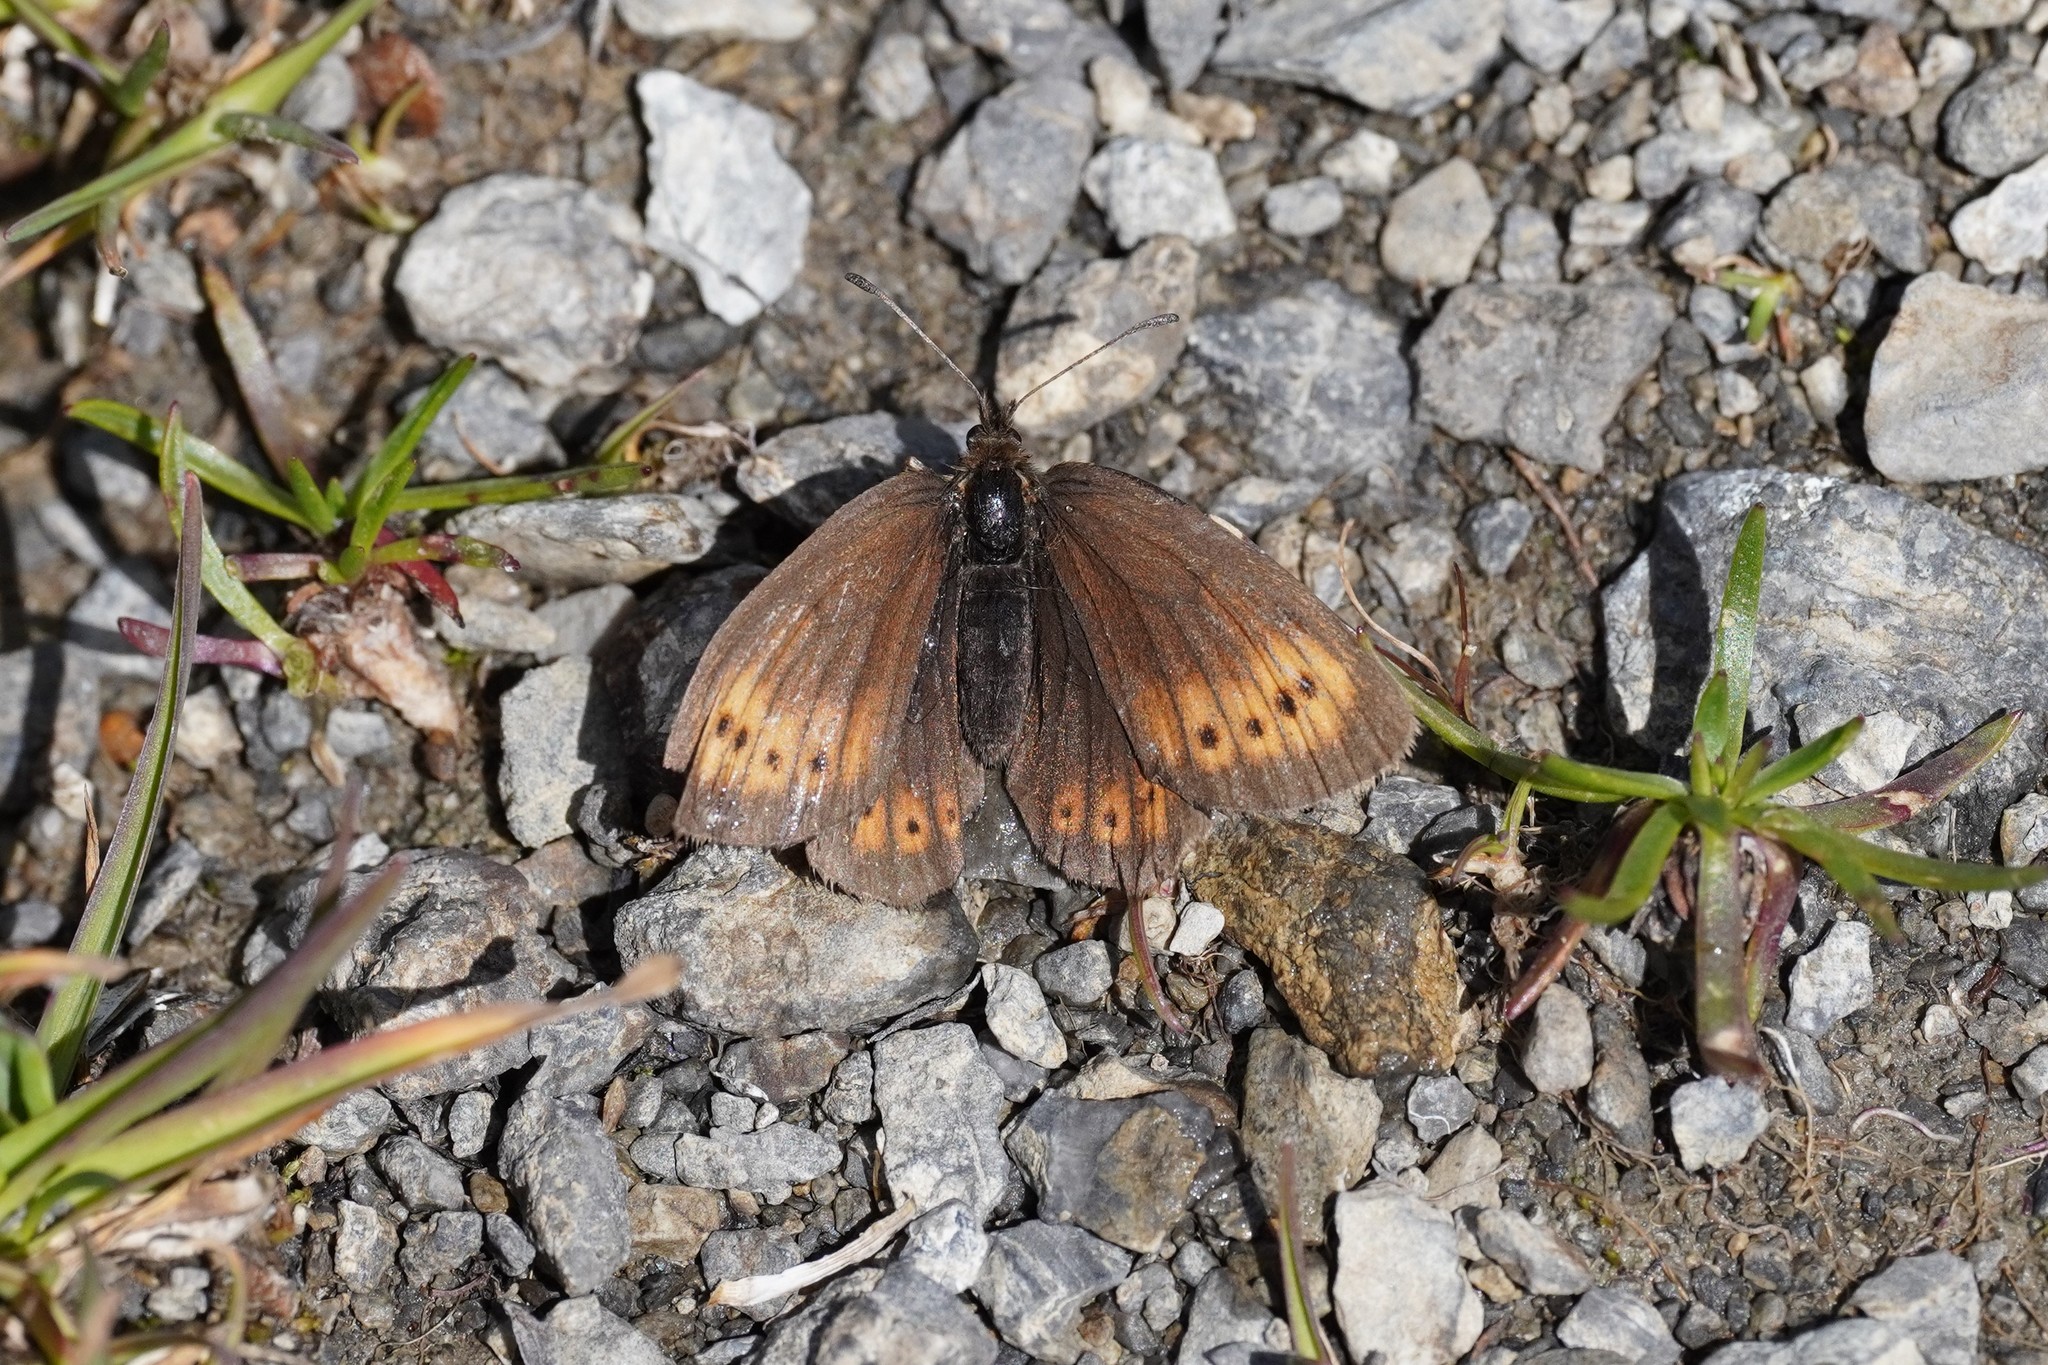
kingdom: Animalia
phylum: Arthropoda
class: Insecta
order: Lepidoptera
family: Nymphalidae
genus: Erebia
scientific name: Erebia epiphron
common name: Mountain ringlet
